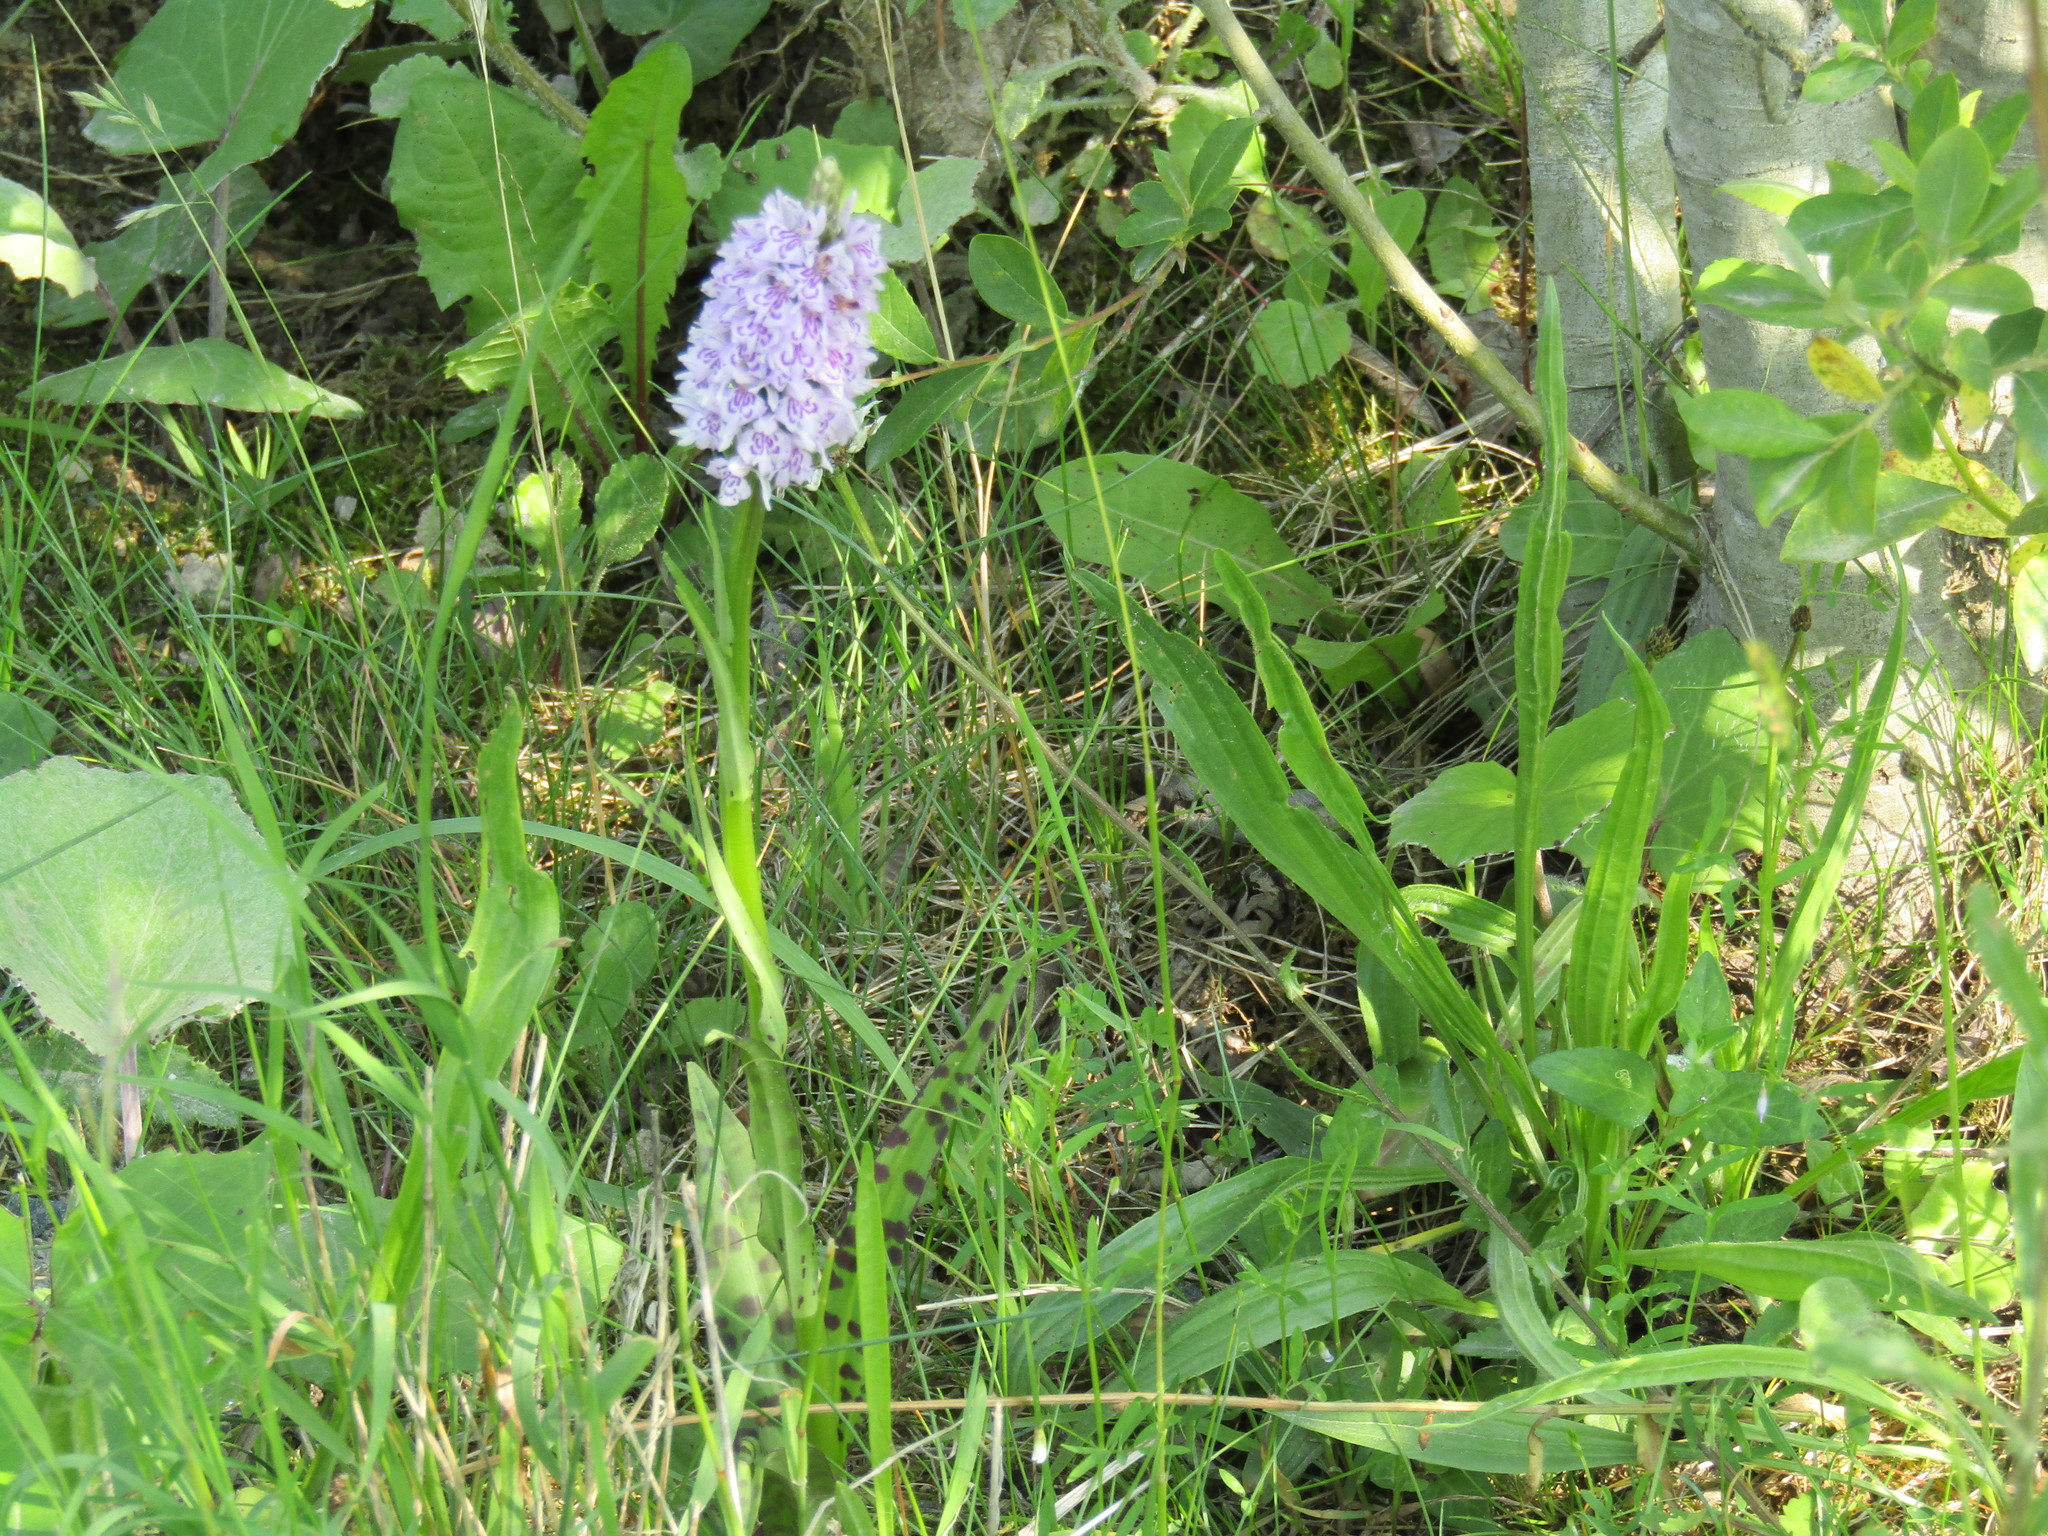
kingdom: Plantae
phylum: Tracheophyta
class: Liliopsida
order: Asparagales
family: Orchidaceae
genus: Dactylorhiza
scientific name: Dactylorhiza maculata
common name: Heath spotted-orchid
